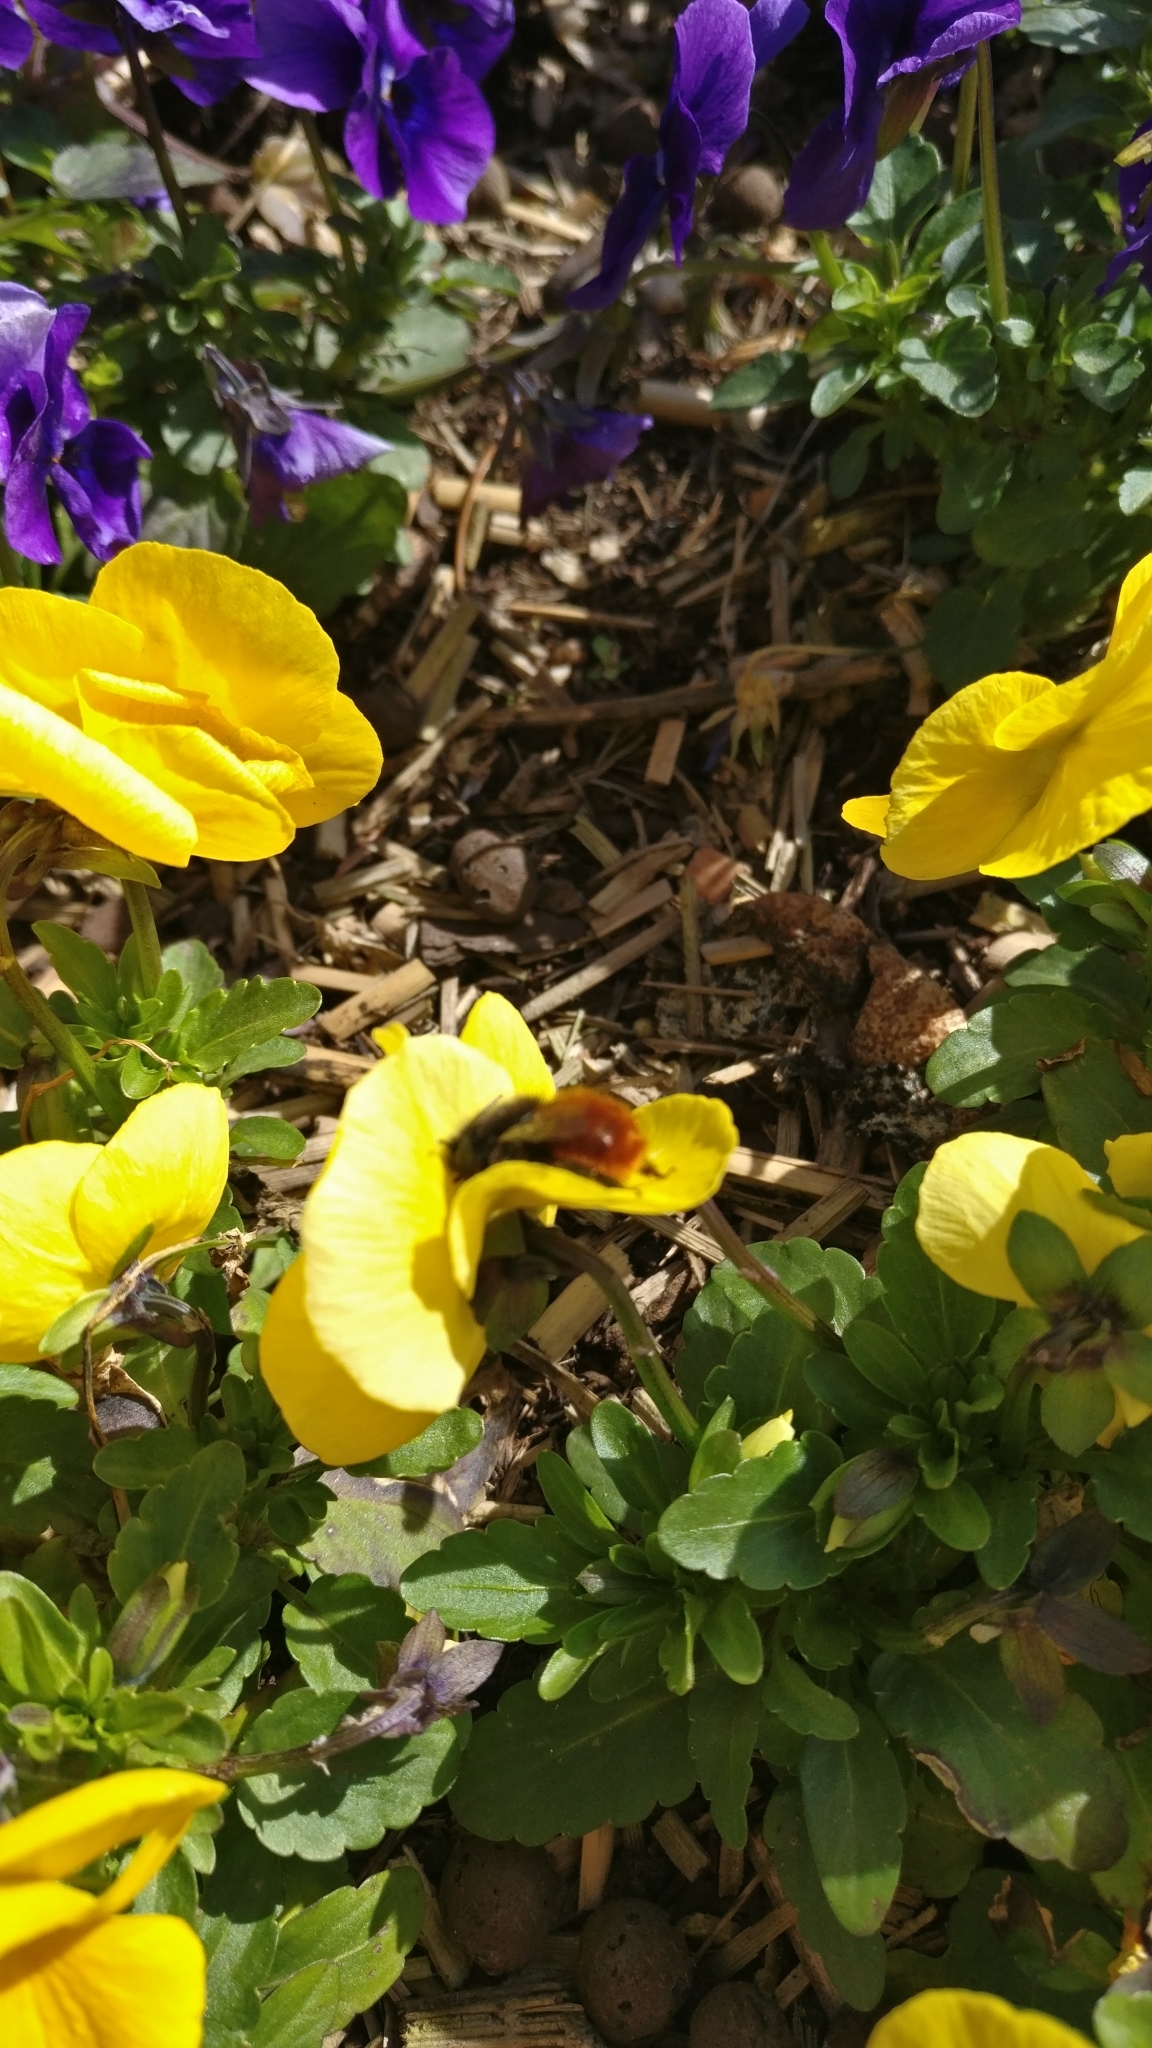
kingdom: Animalia
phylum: Arthropoda
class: Insecta
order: Hymenoptera
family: Megachilidae
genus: Osmia
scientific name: Osmia cornuta
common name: Mason bee
